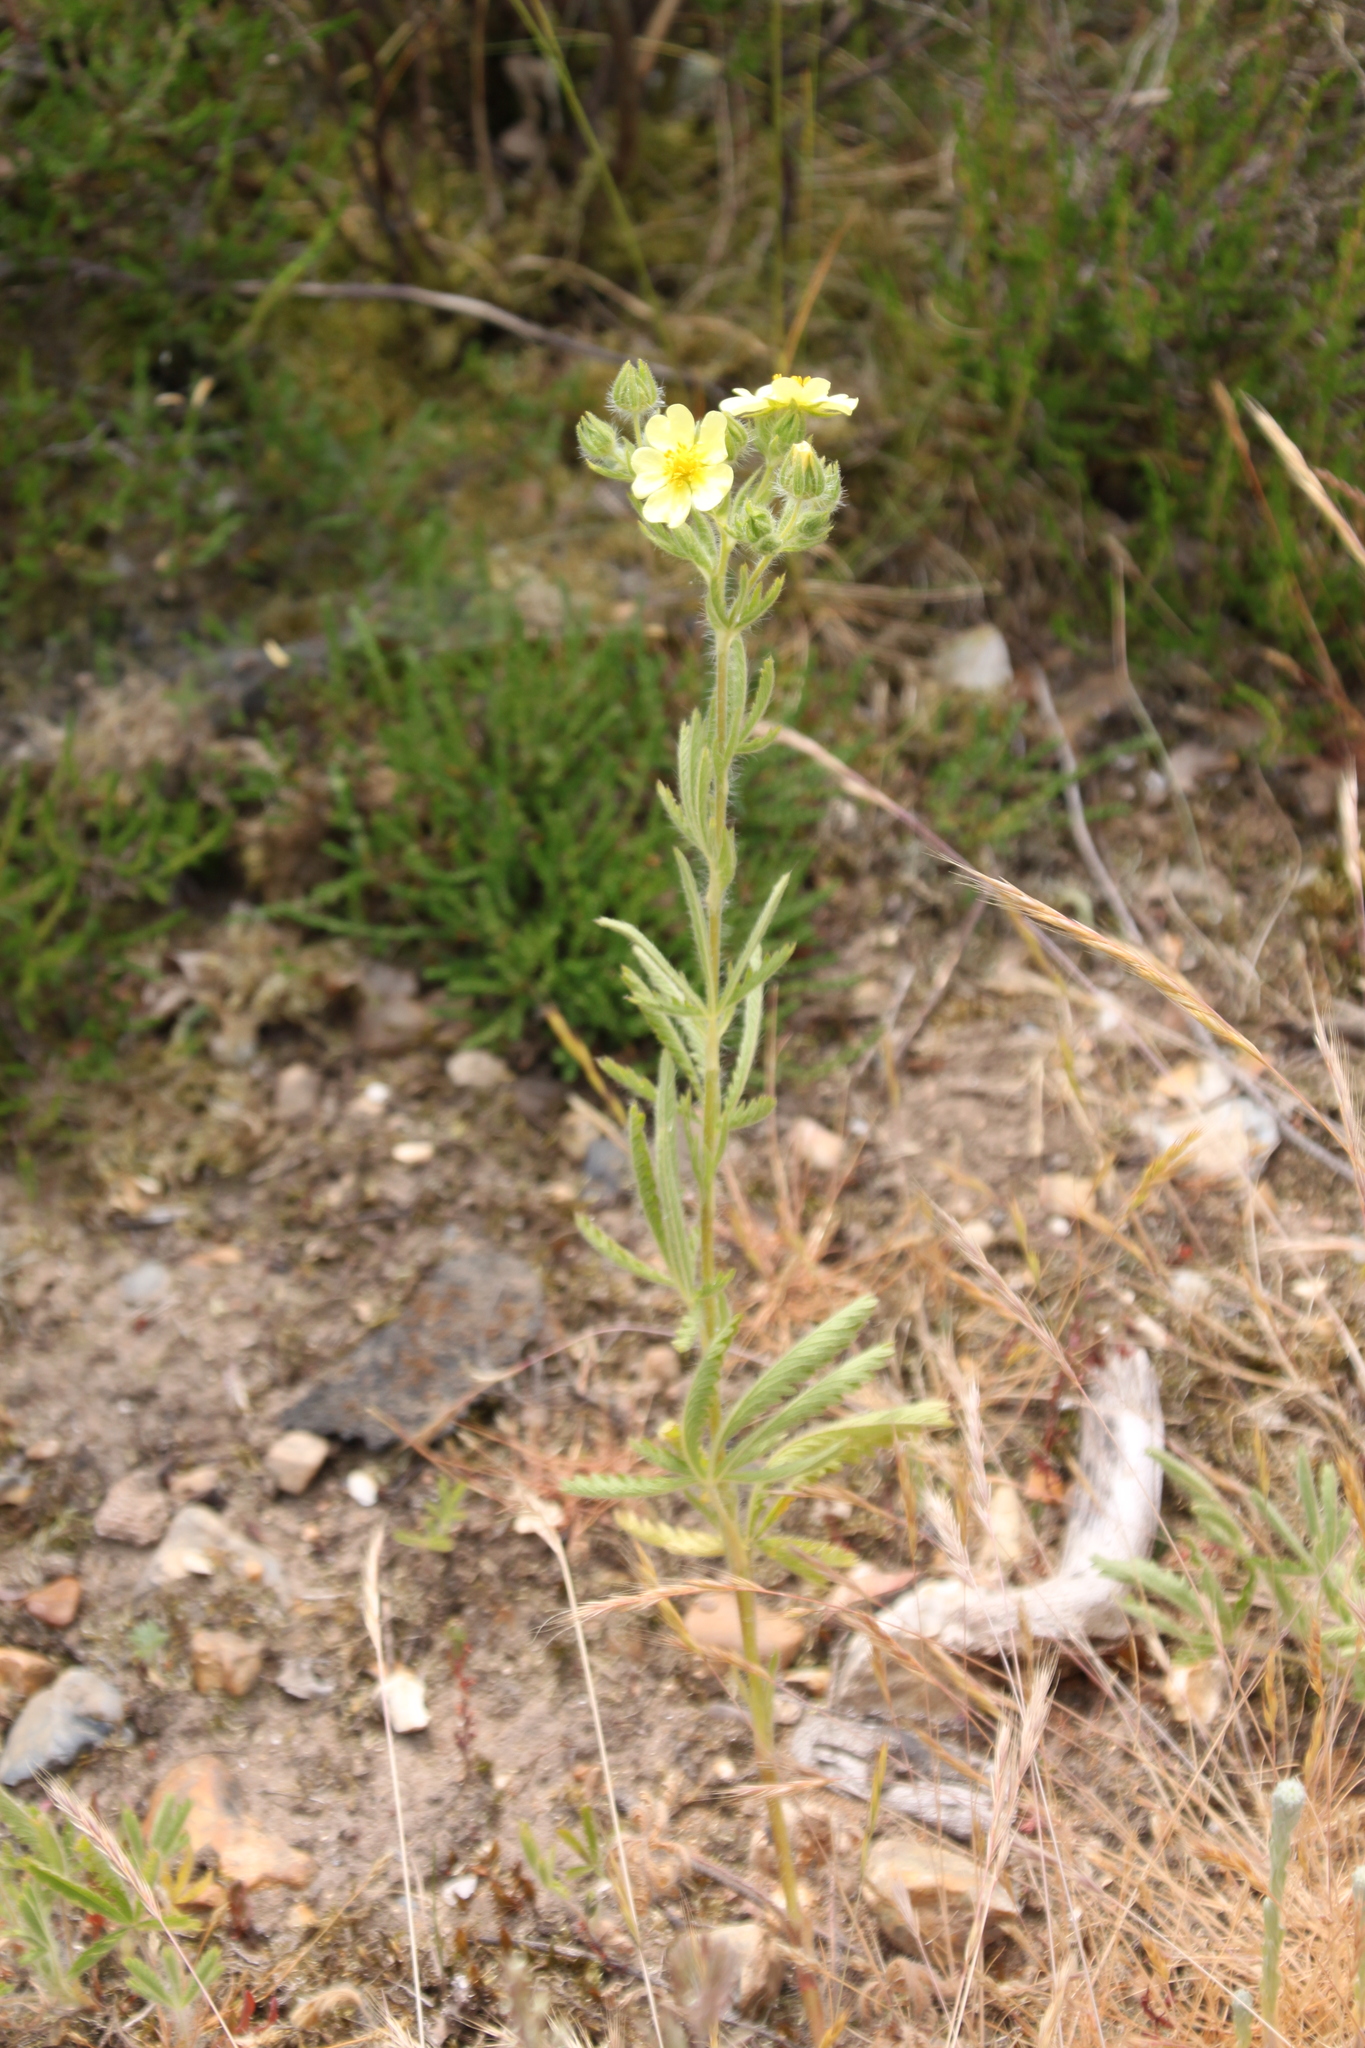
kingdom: Plantae
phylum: Tracheophyta
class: Magnoliopsida
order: Rosales
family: Rosaceae
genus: Potentilla
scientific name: Potentilla recta
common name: Sulphur cinquefoil
